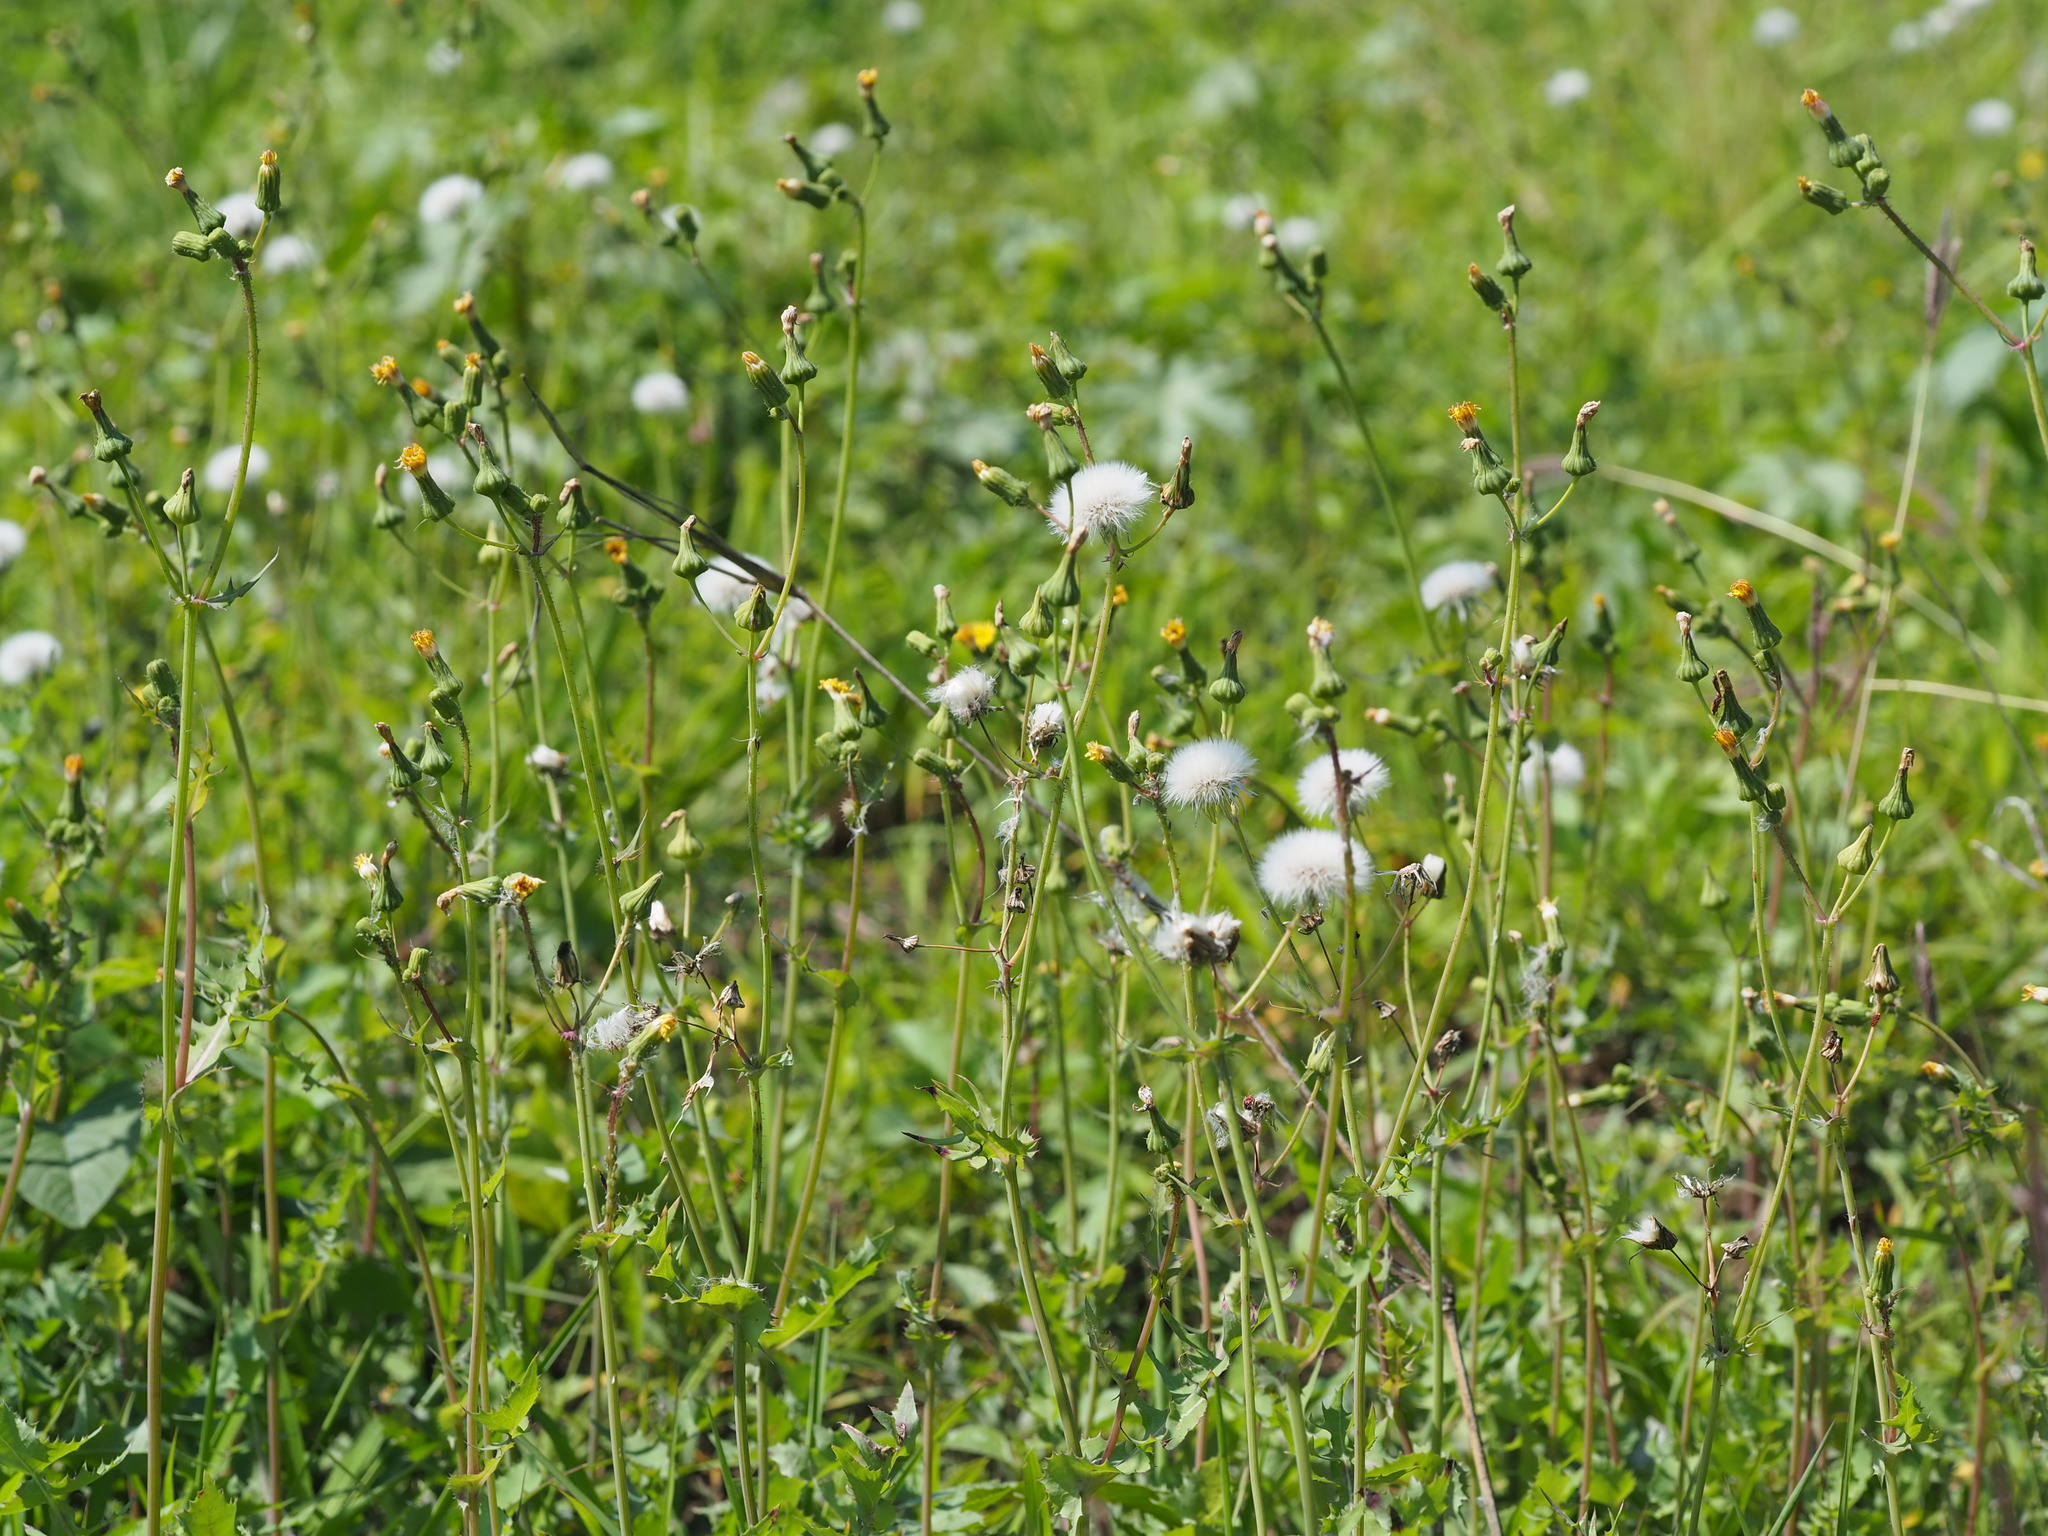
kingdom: Plantae
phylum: Tracheophyta
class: Magnoliopsida
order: Asterales
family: Asteraceae
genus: Sonchus
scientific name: Sonchus oleraceus
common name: Common sowthistle
